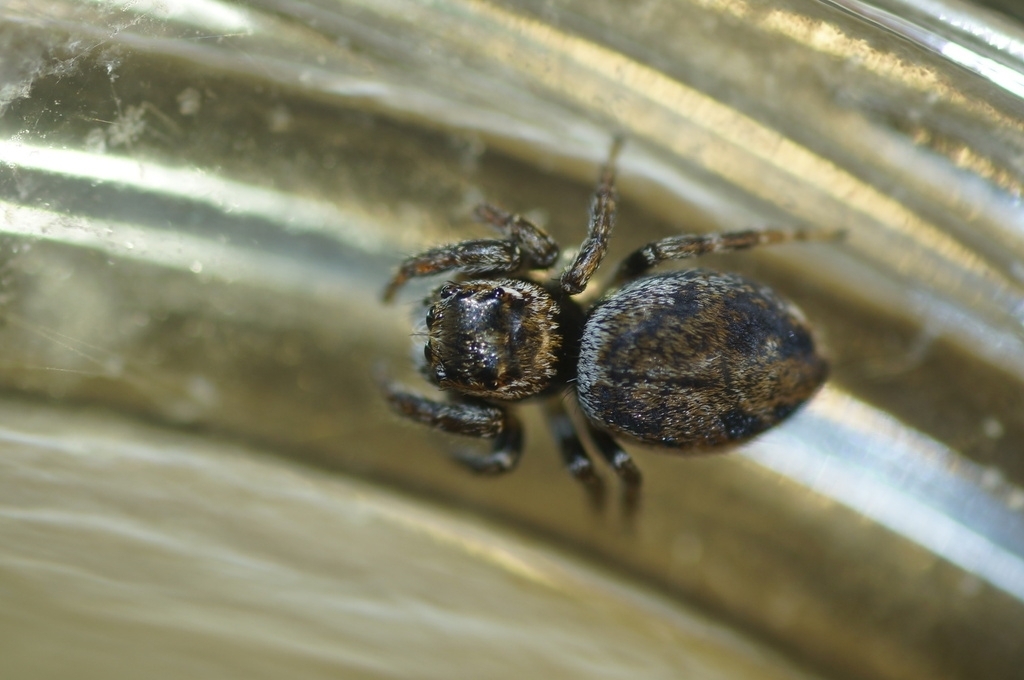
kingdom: Animalia
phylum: Arthropoda
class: Arachnida
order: Araneae
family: Salticidae
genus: Evarcha
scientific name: Evarcha falcata
